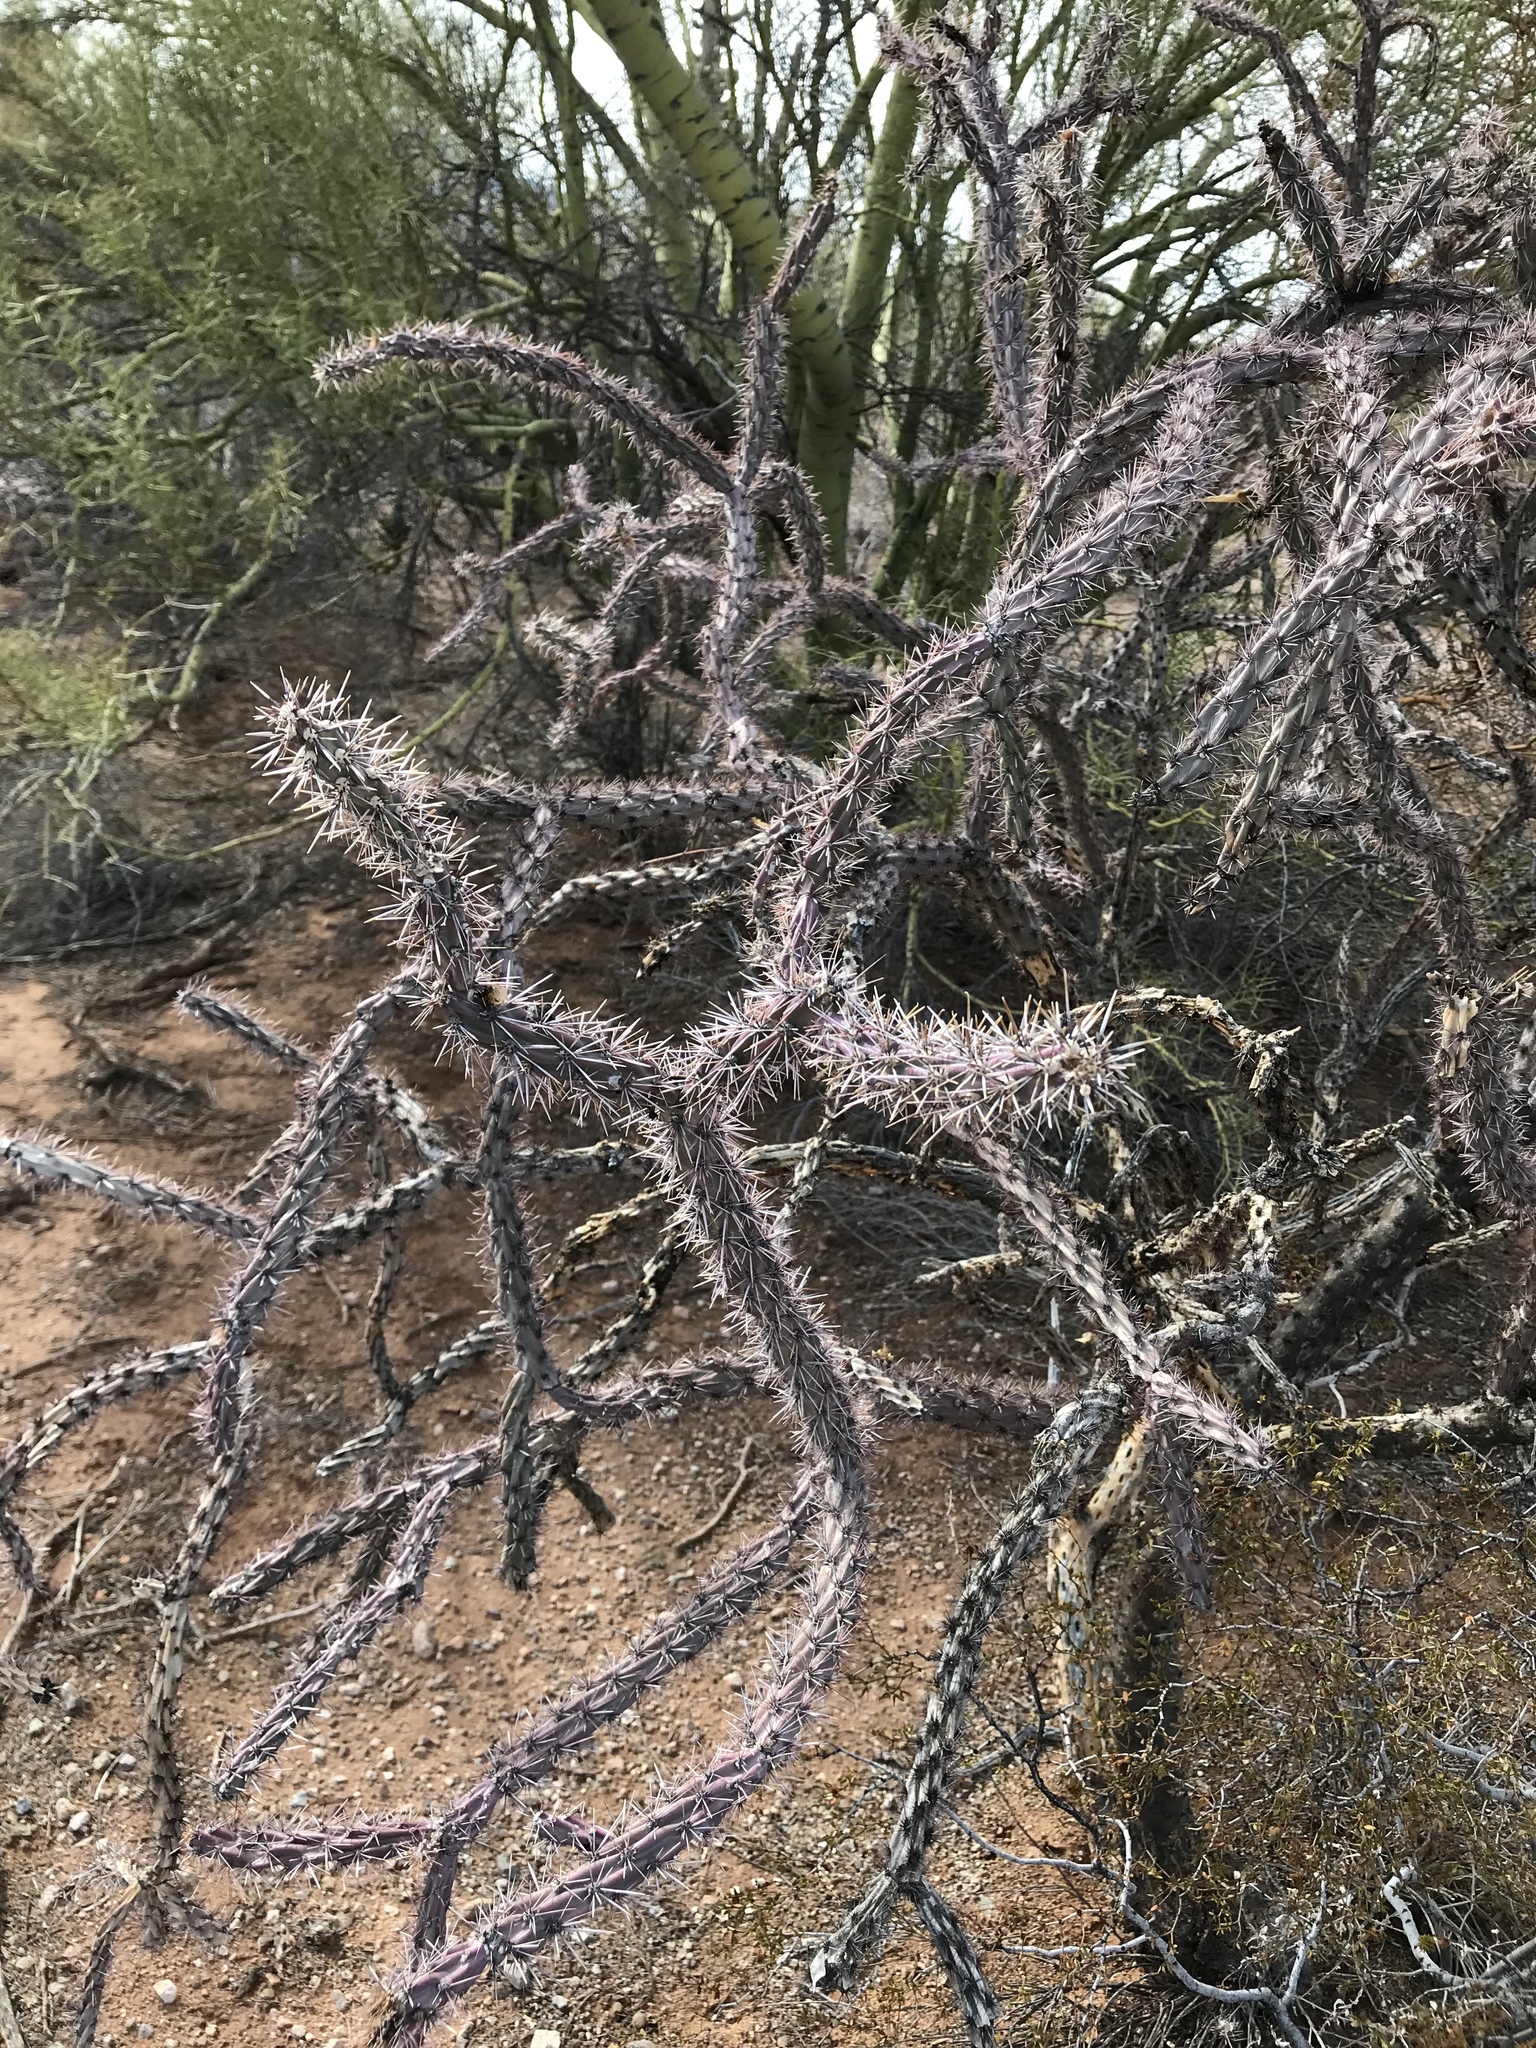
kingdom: Plantae
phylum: Tracheophyta
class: Magnoliopsida
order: Caryophyllales
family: Cactaceae
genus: Cylindropuntia
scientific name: Cylindropuntia imbricata
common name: Candelabrum cactus
